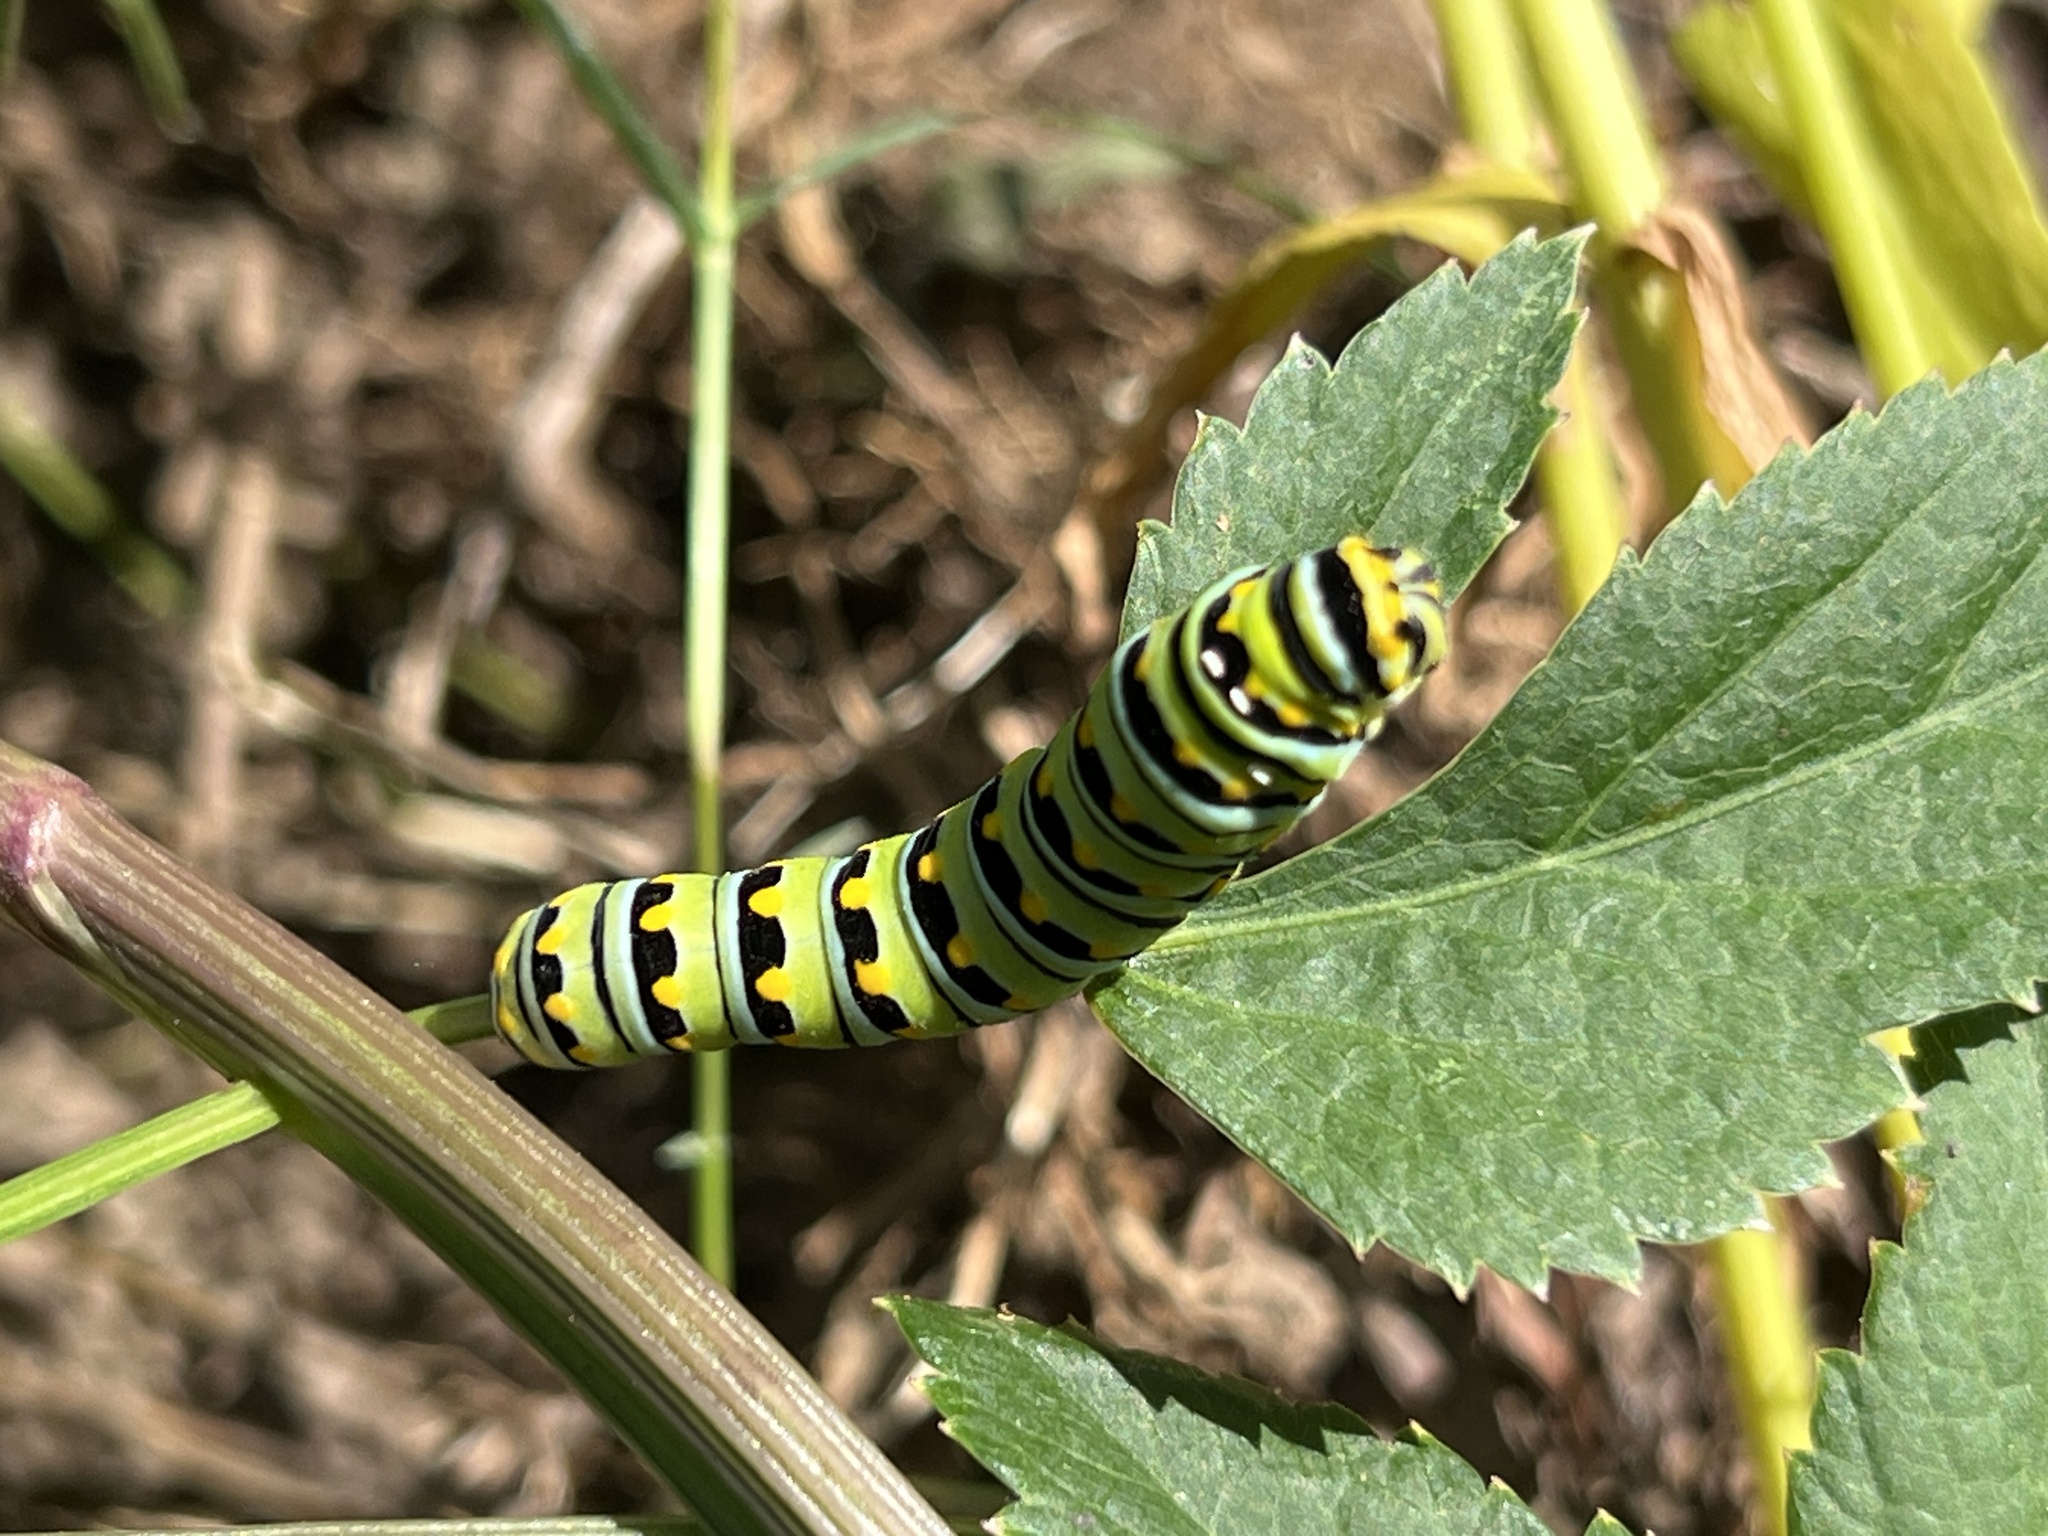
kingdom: Animalia
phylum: Arthropoda
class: Insecta
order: Lepidoptera
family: Papilionidae
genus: Papilio
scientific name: Papilio polyxenes
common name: Black swallowtail
